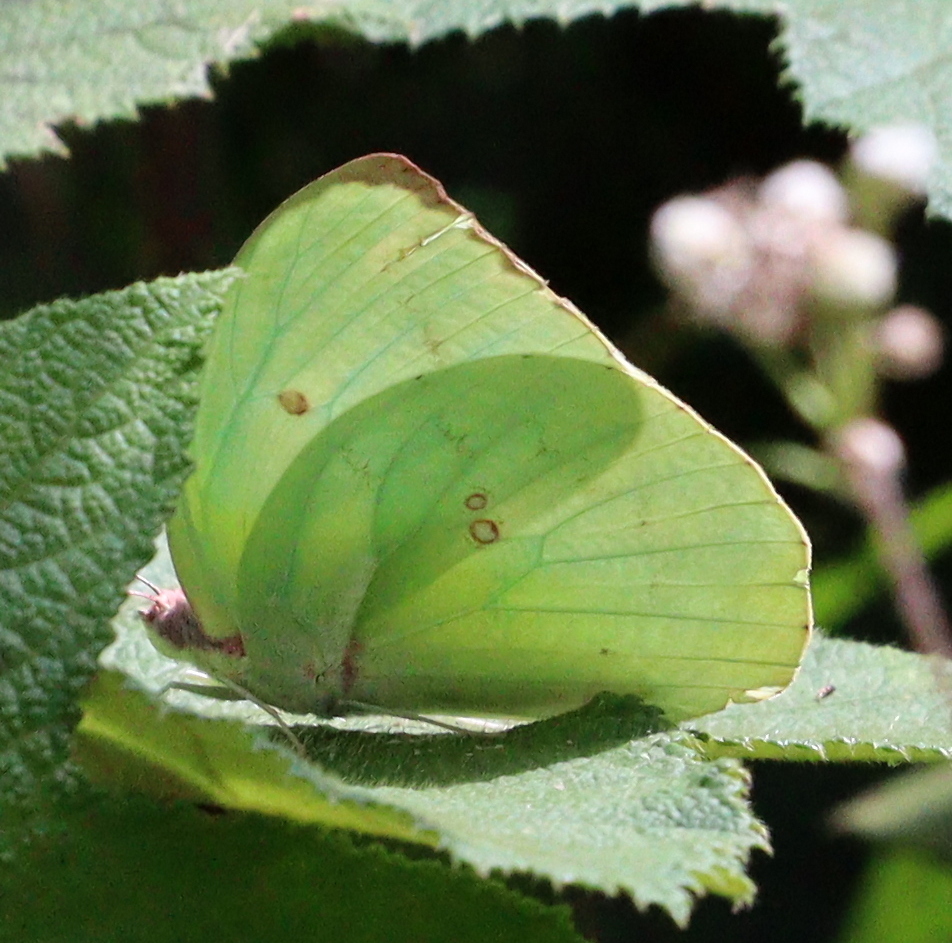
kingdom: Animalia
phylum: Arthropoda
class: Insecta
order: Lepidoptera
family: Pieridae
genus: Catopsilia
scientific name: Catopsilia pomona
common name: Common emigrant
